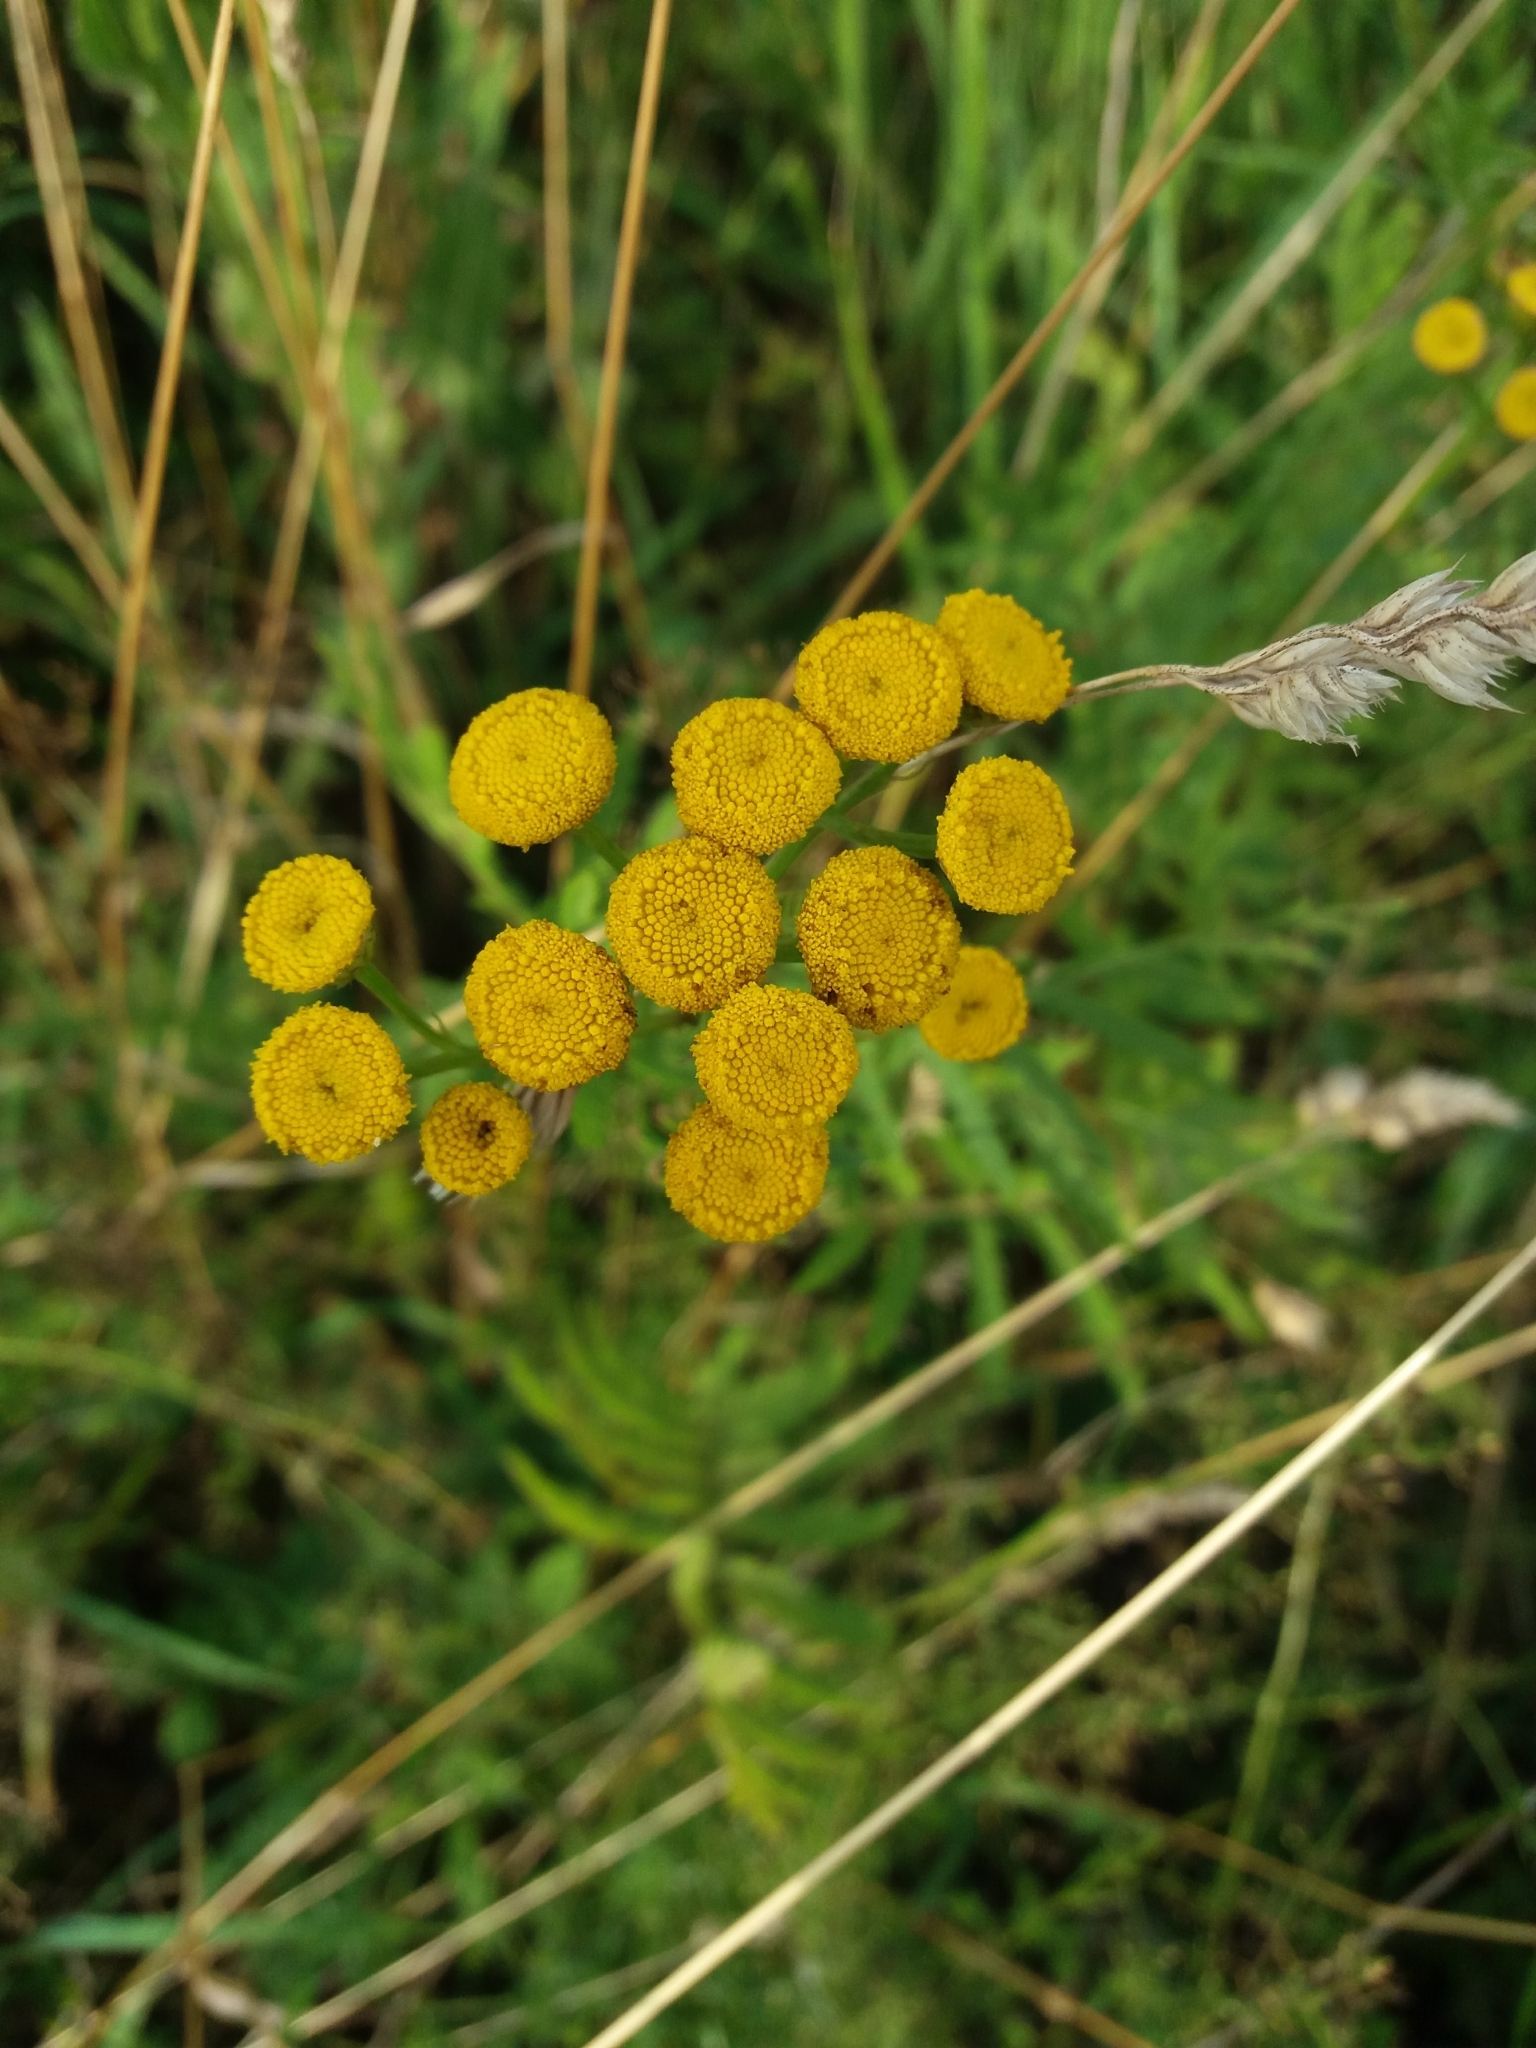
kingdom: Plantae
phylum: Tracheophyta
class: Magnoliopsida
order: Asterales
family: Asteraceae
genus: Tanacetum
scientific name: Tanacetum vulgare
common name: Common tansy
